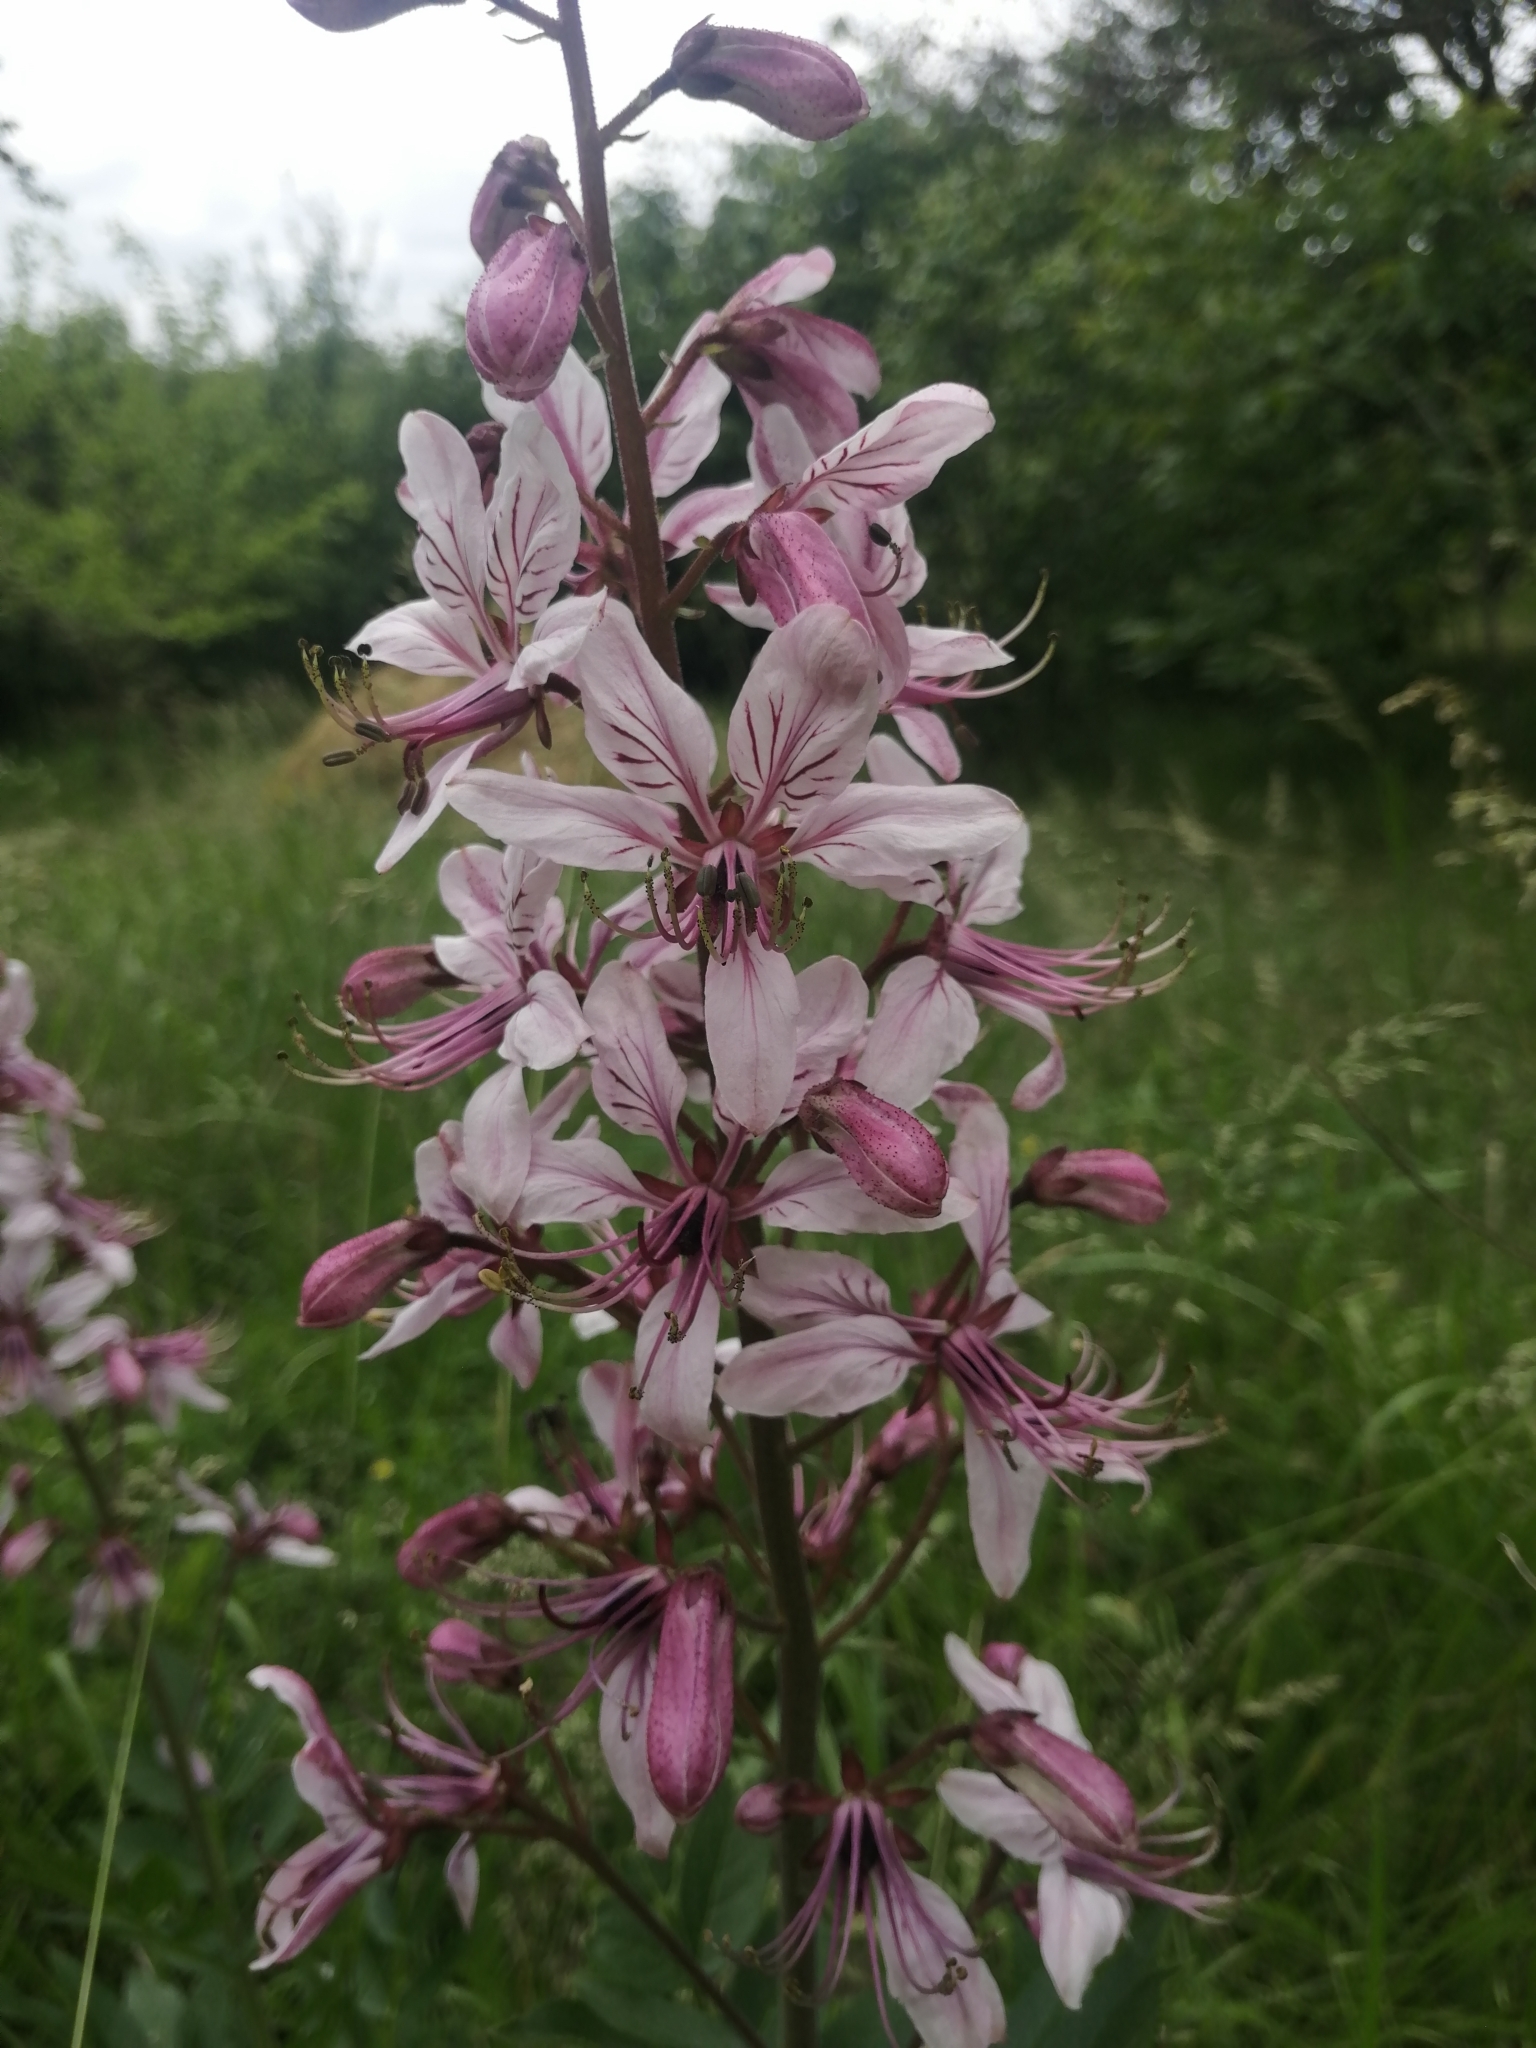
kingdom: Plantae
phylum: Tracheophyta
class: Magnoliopsida
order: Sapindales
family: Rutaceae
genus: Dictamnus
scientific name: Dictamnus albus
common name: Gasplant
